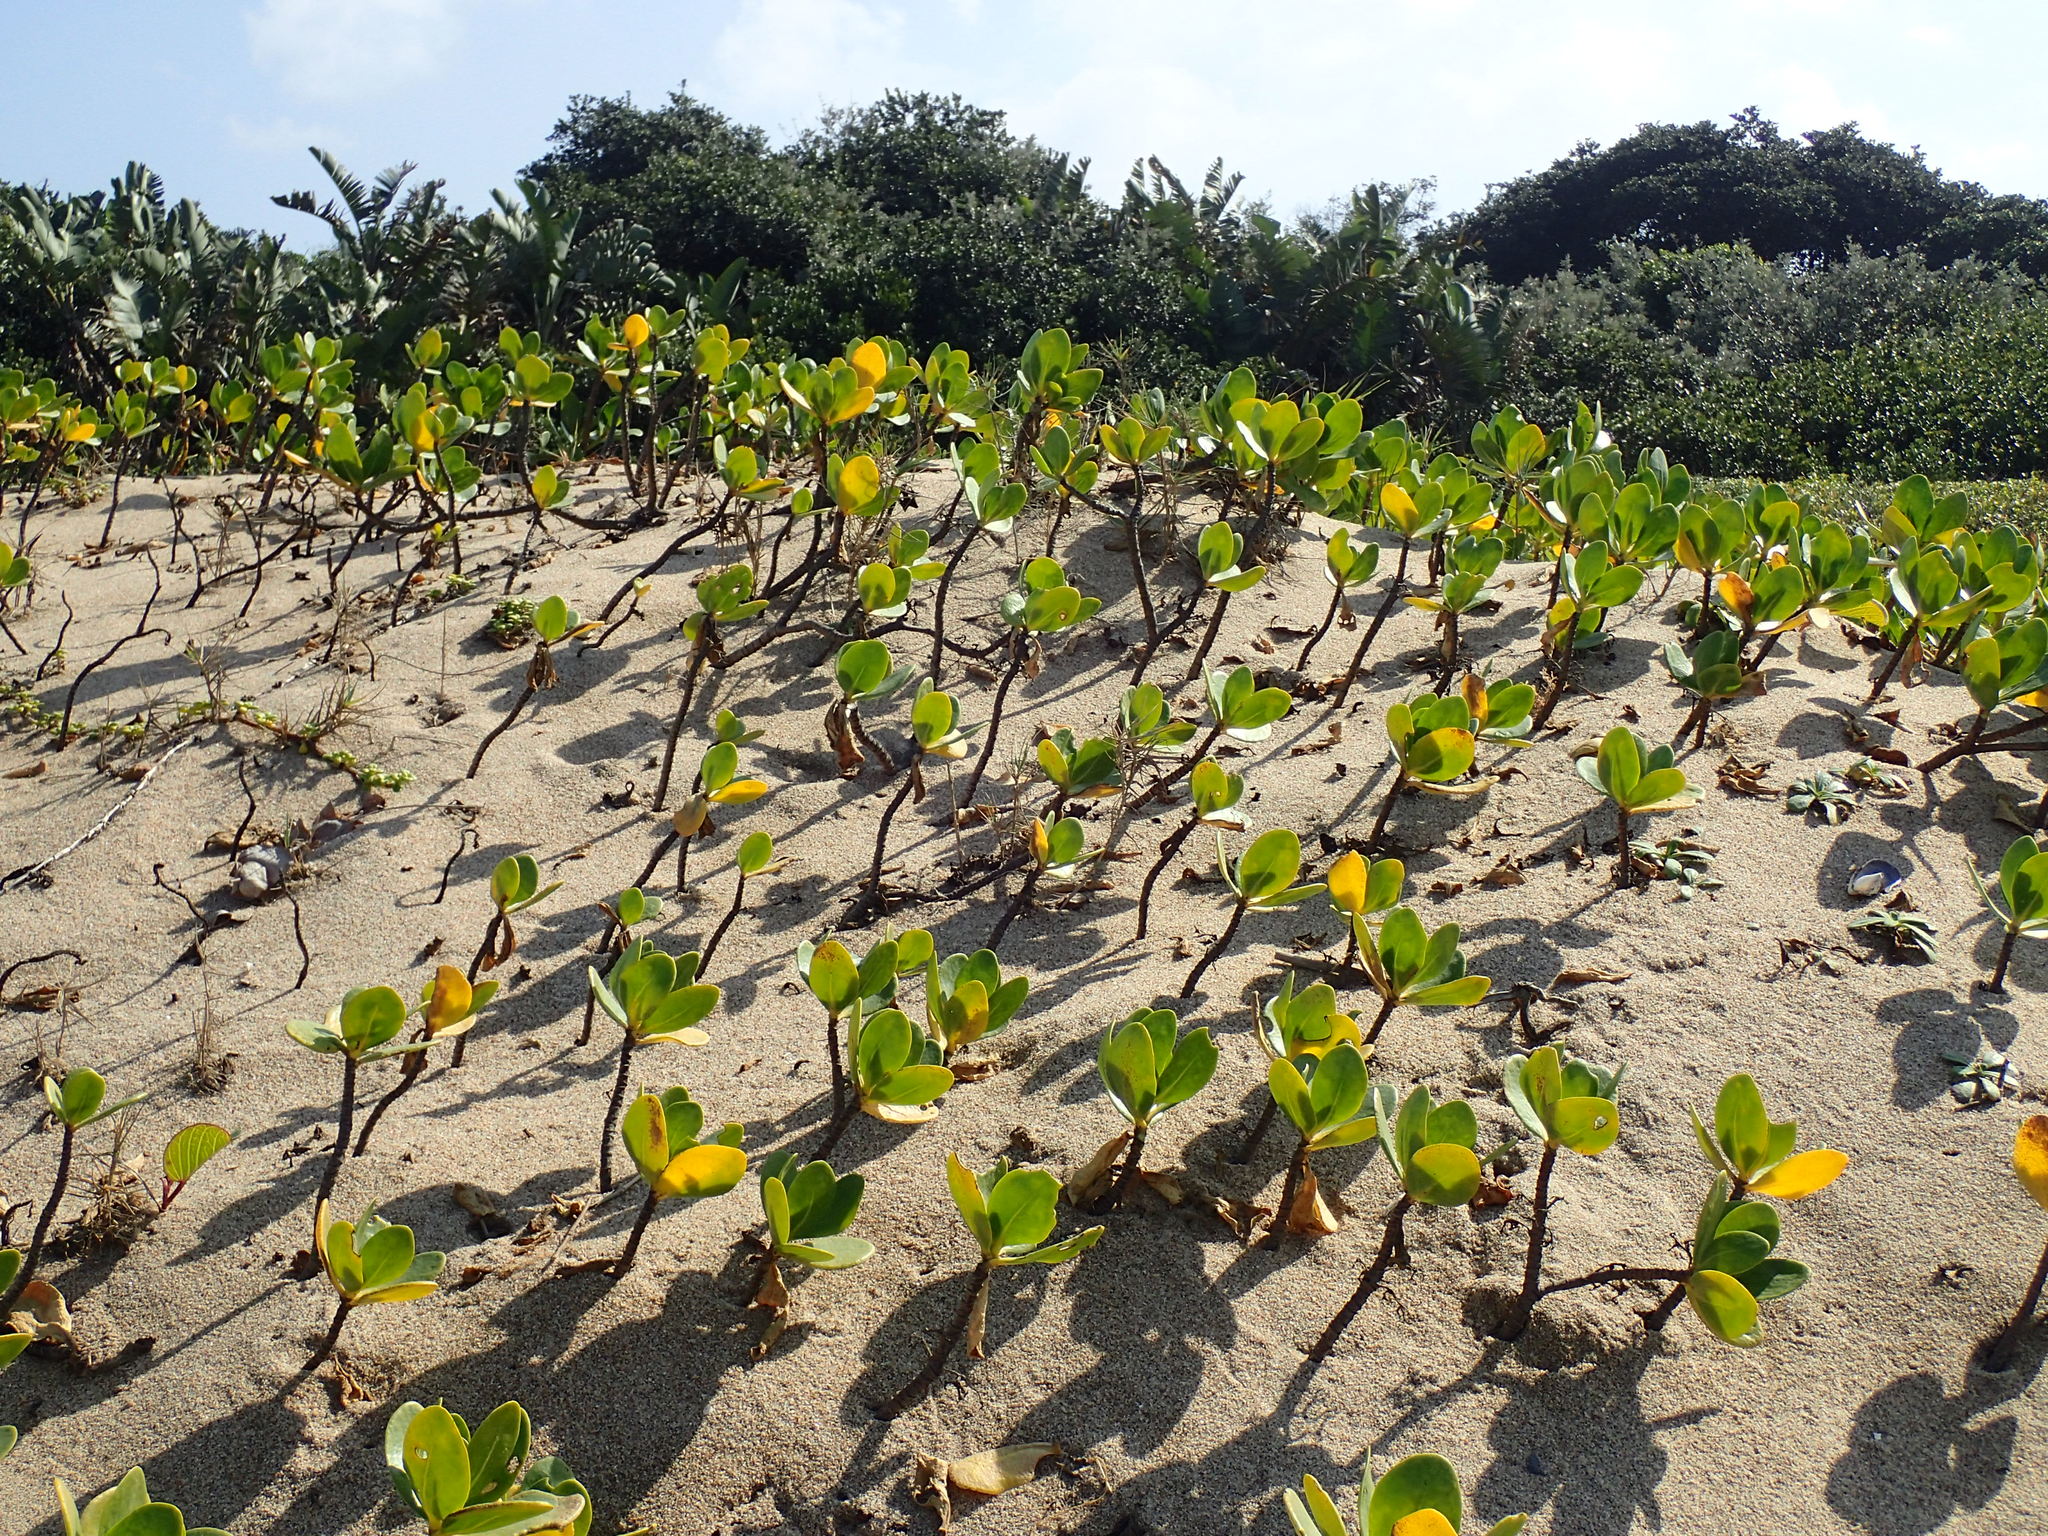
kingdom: Plantae
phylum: Tracheophyta
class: Magnoliopsida
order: Asterales
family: Goodeniaceae
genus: Scaevola
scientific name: Scaevola plumieri
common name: Gull feed
